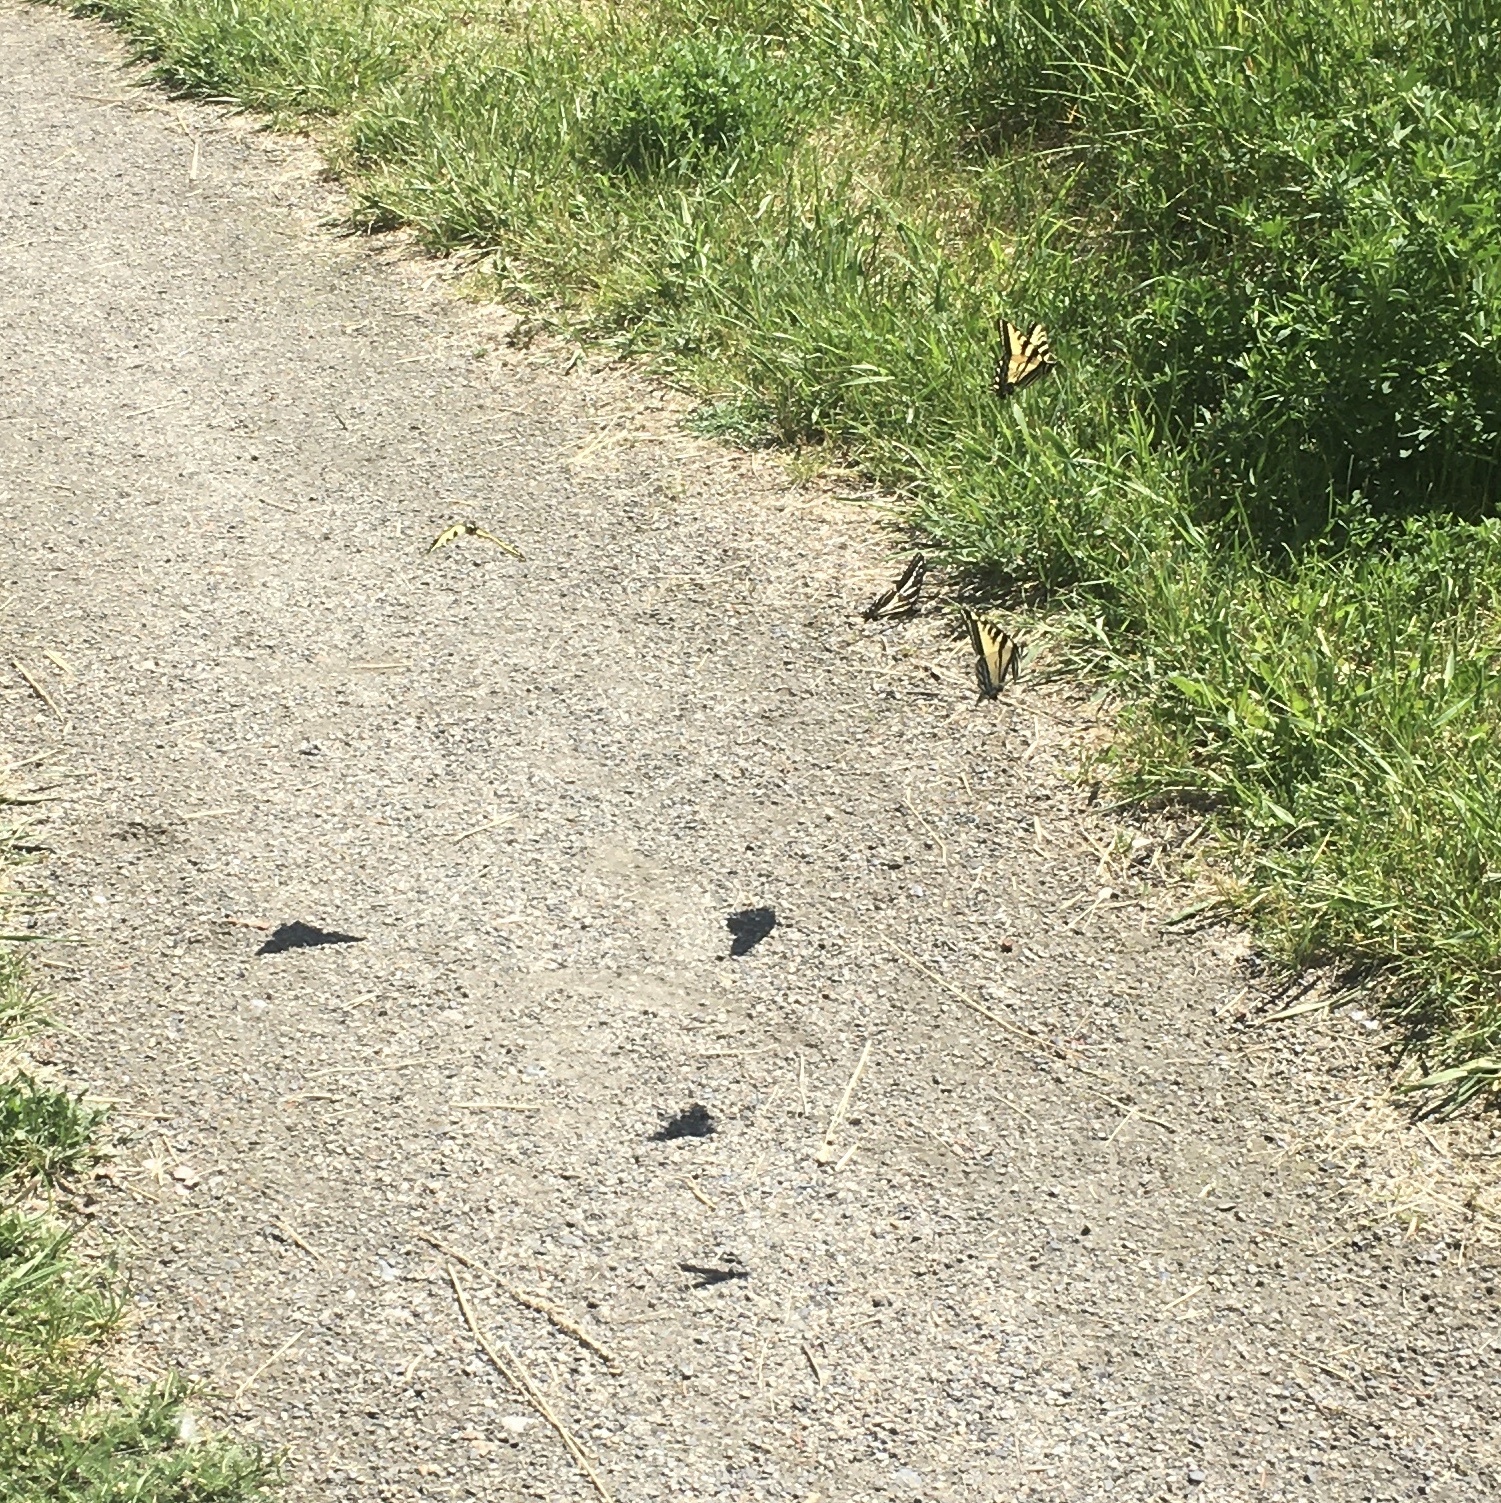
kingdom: Animalia
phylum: Arthropoda
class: Insecta
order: Lepidoptera
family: Papilionidae
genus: Papilio
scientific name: Papilio rutulus
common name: Western tiger swallowtail
